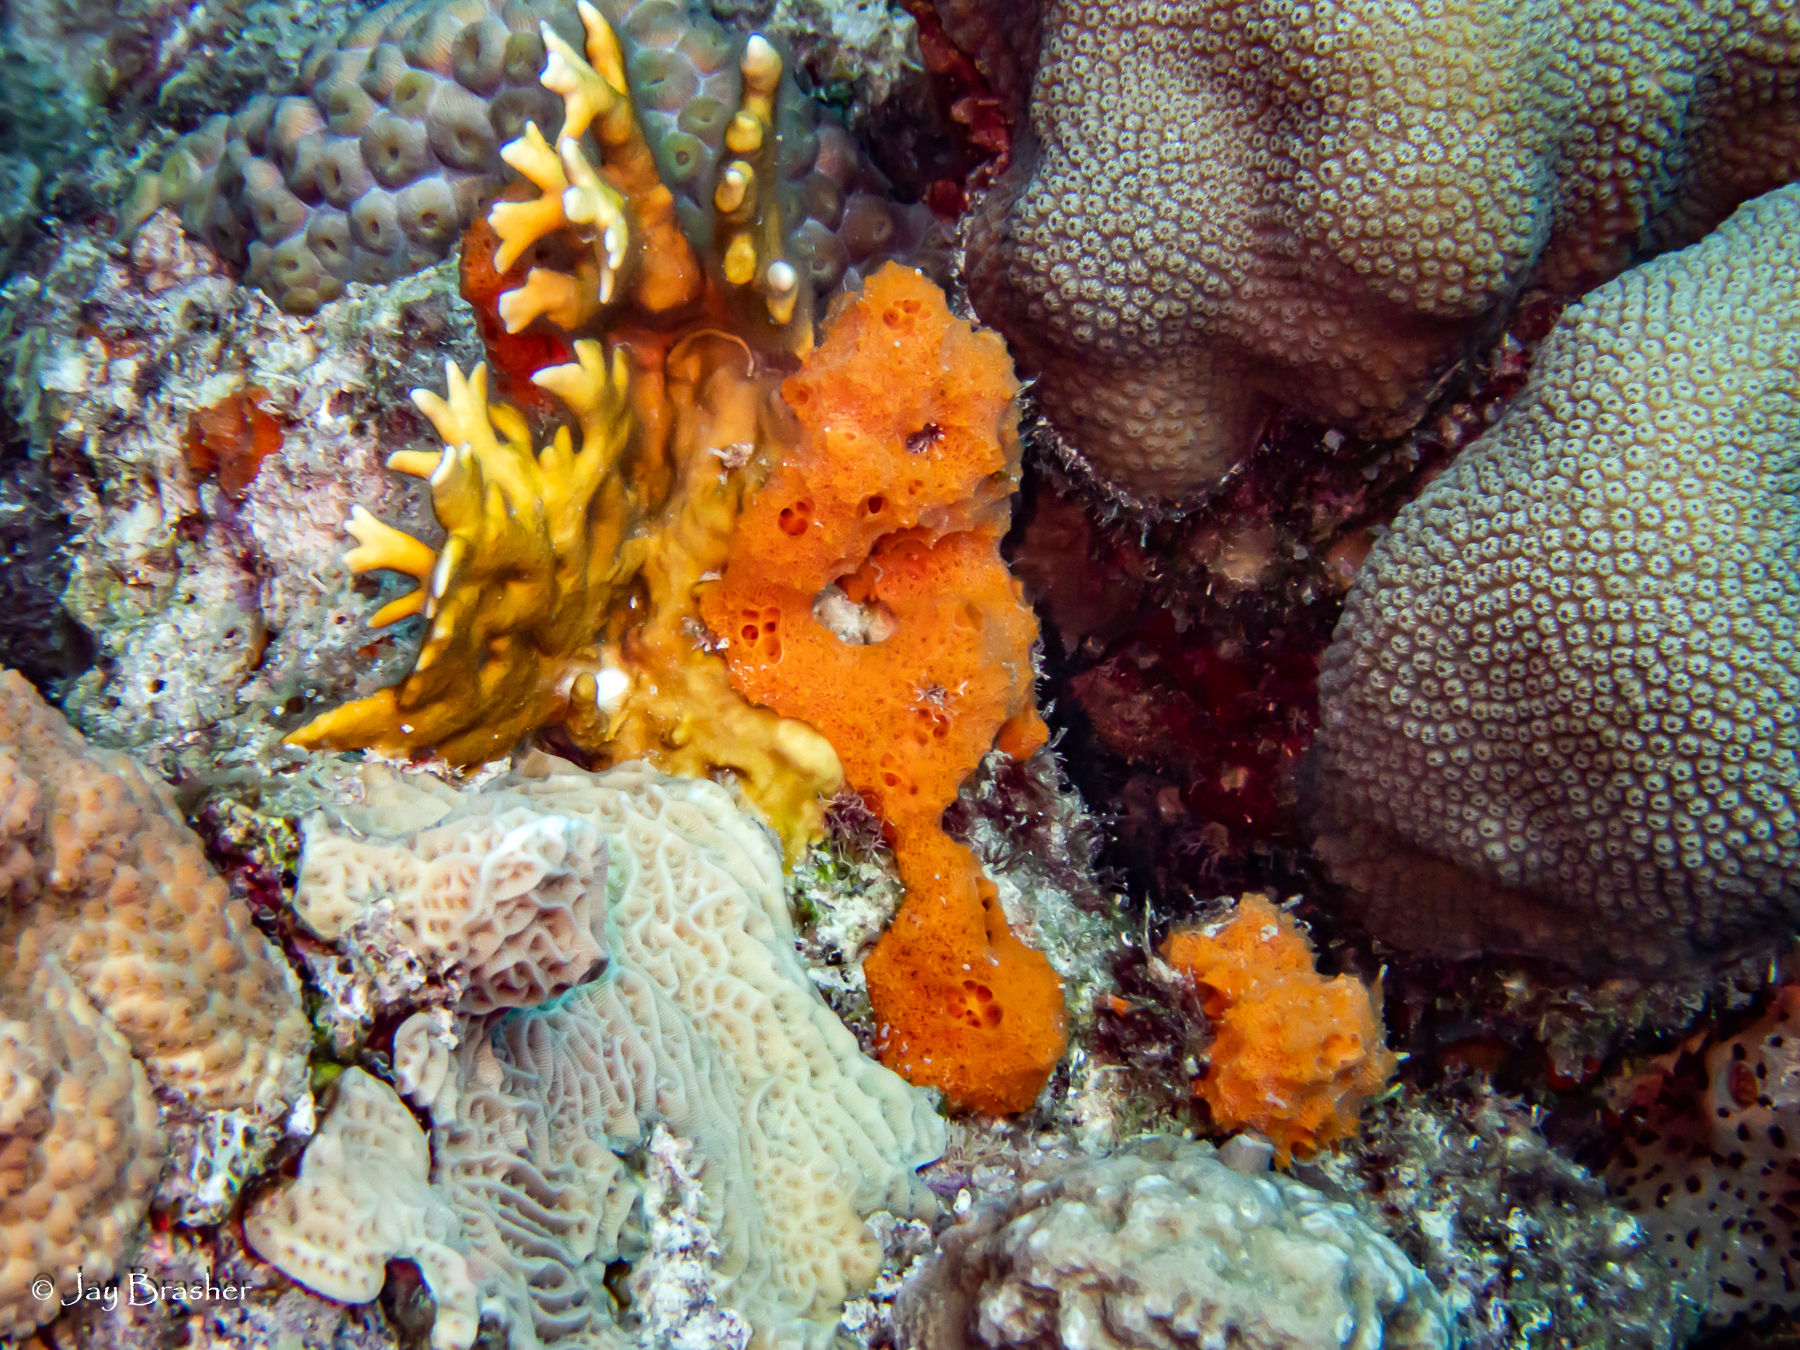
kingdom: Animalia
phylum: Cnidaria
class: Anthozoa
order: Scleractinia
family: Montastraeidae
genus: Montastraea
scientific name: Montastraea cavernosa
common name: Great star coral
